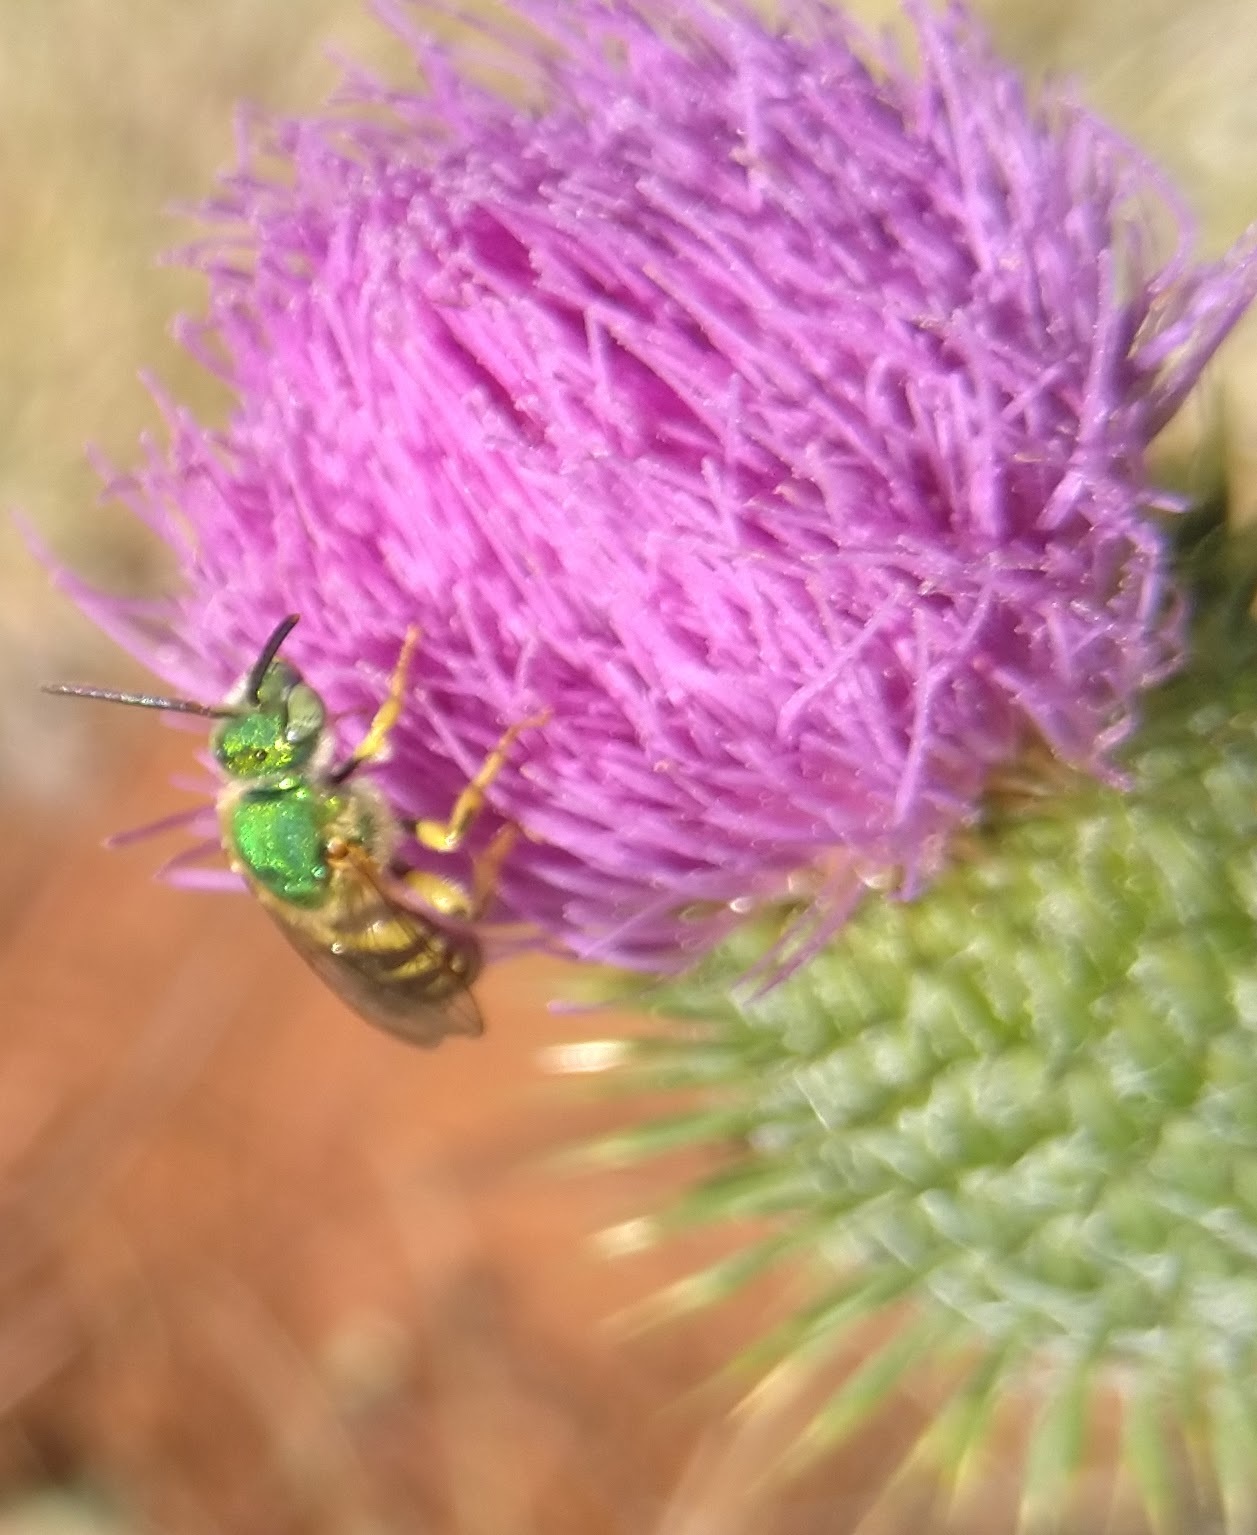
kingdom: Animalia
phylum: Arthropoda
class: Insecta
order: Hymenoptera
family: Halictidae
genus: Agapostemon
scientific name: Agapostemon
